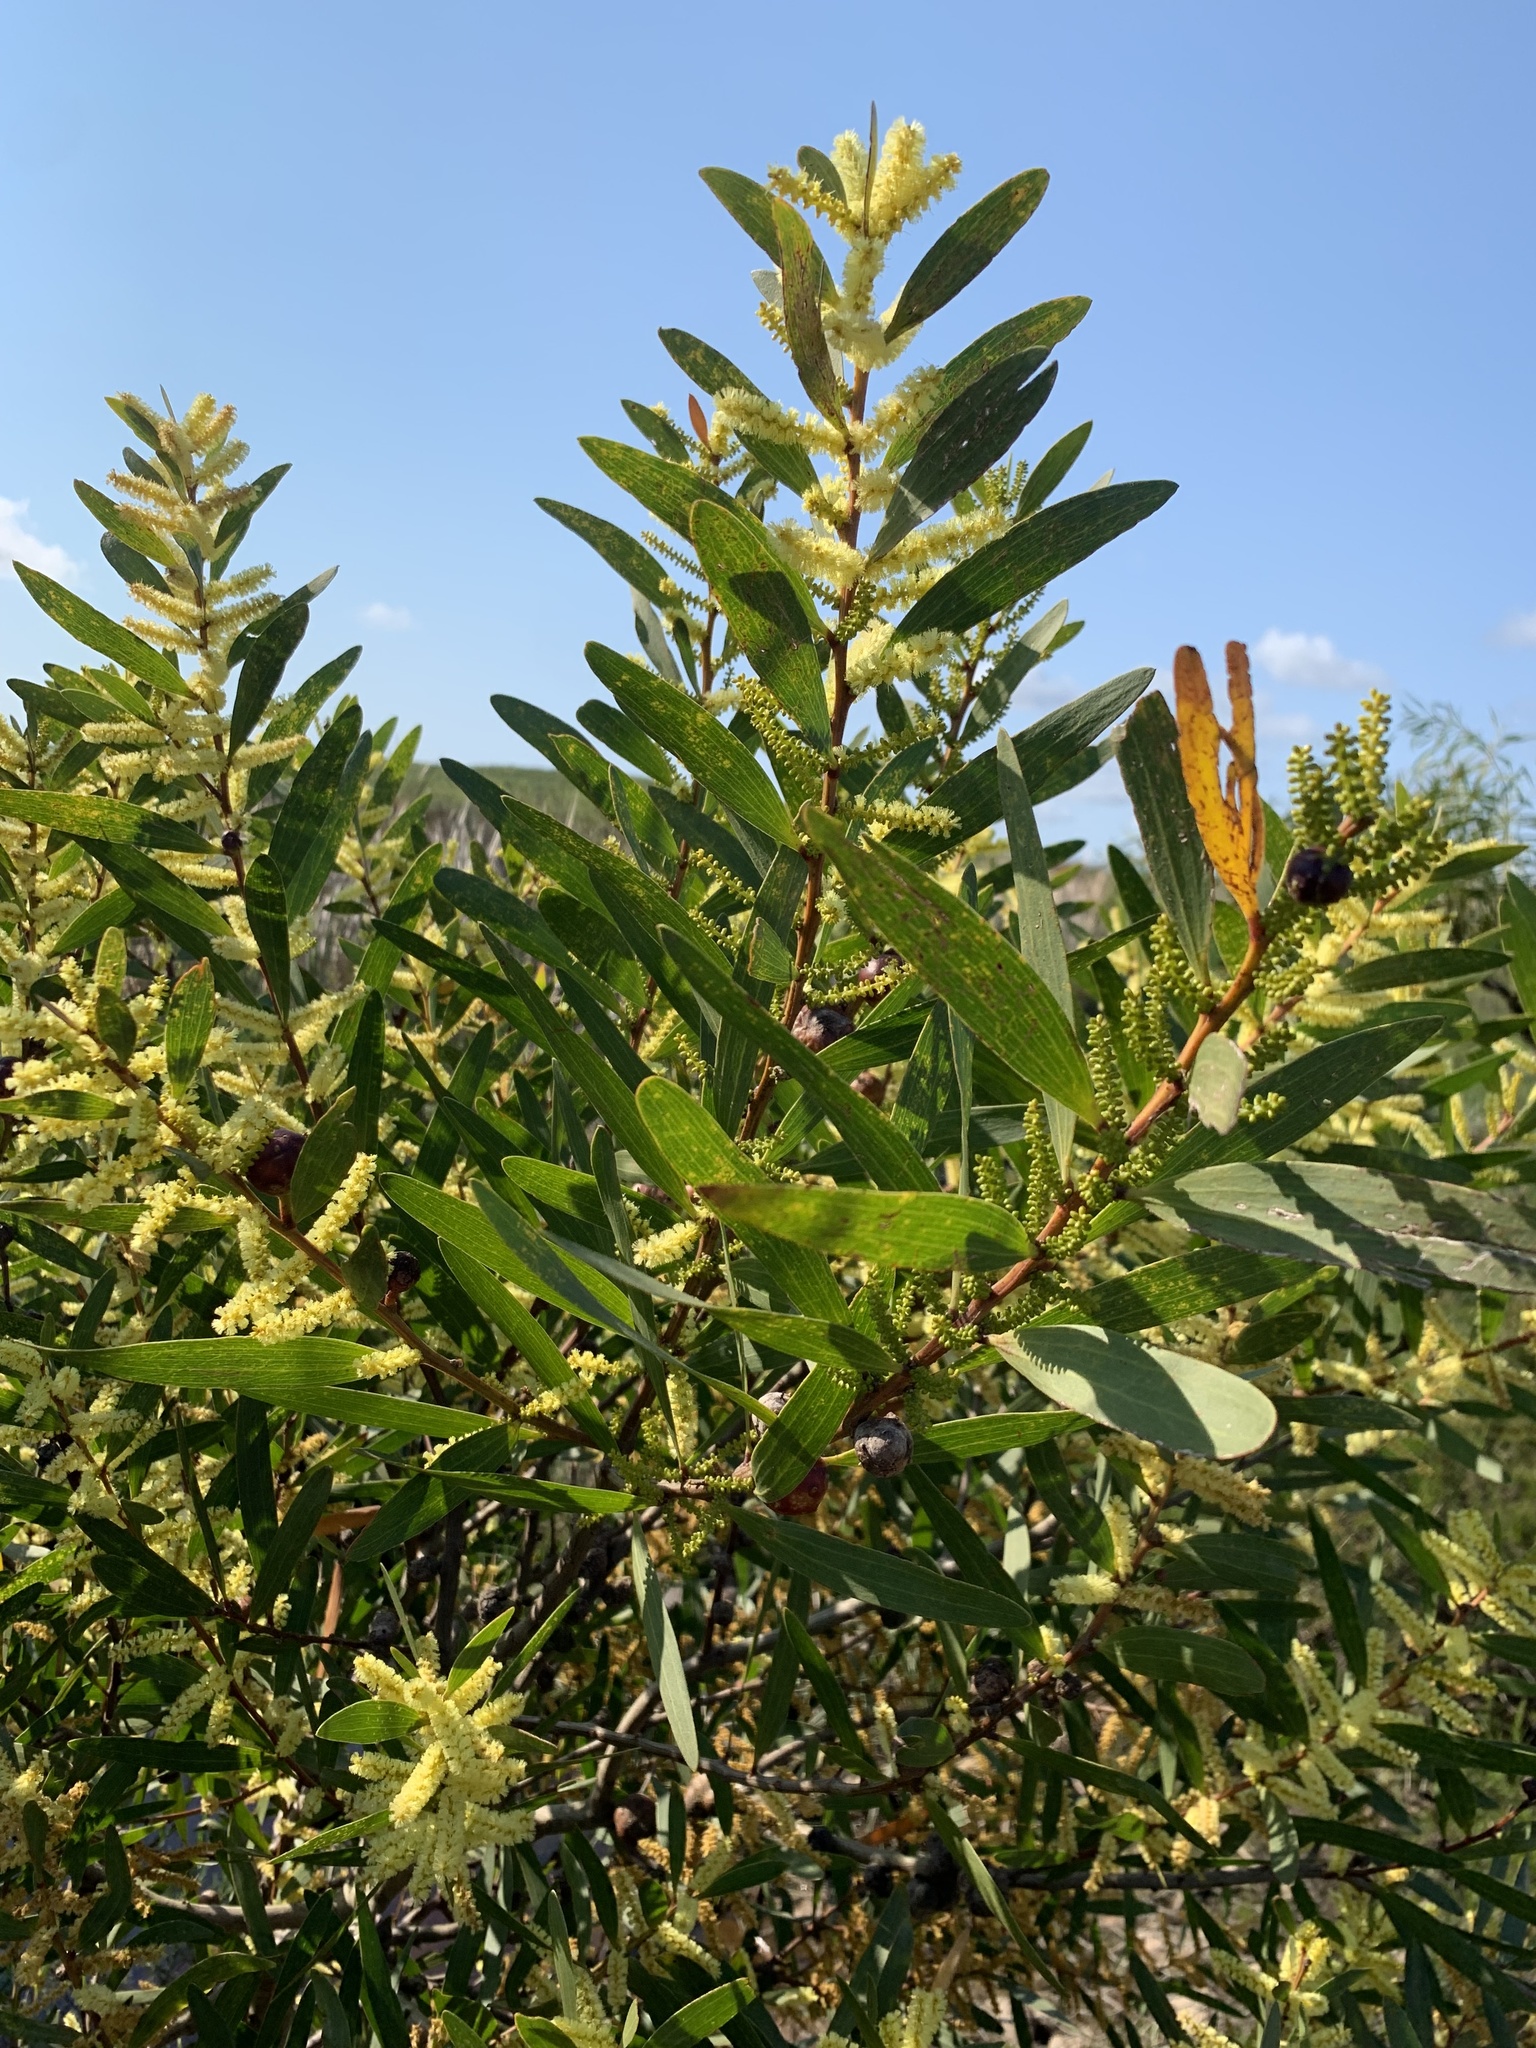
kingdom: Plantae
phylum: Tracheophyta
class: Magnoliopsida
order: Fabales
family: Fabaceae
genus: Acacia
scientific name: Acacia longifolia
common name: Sydney golden wattle
